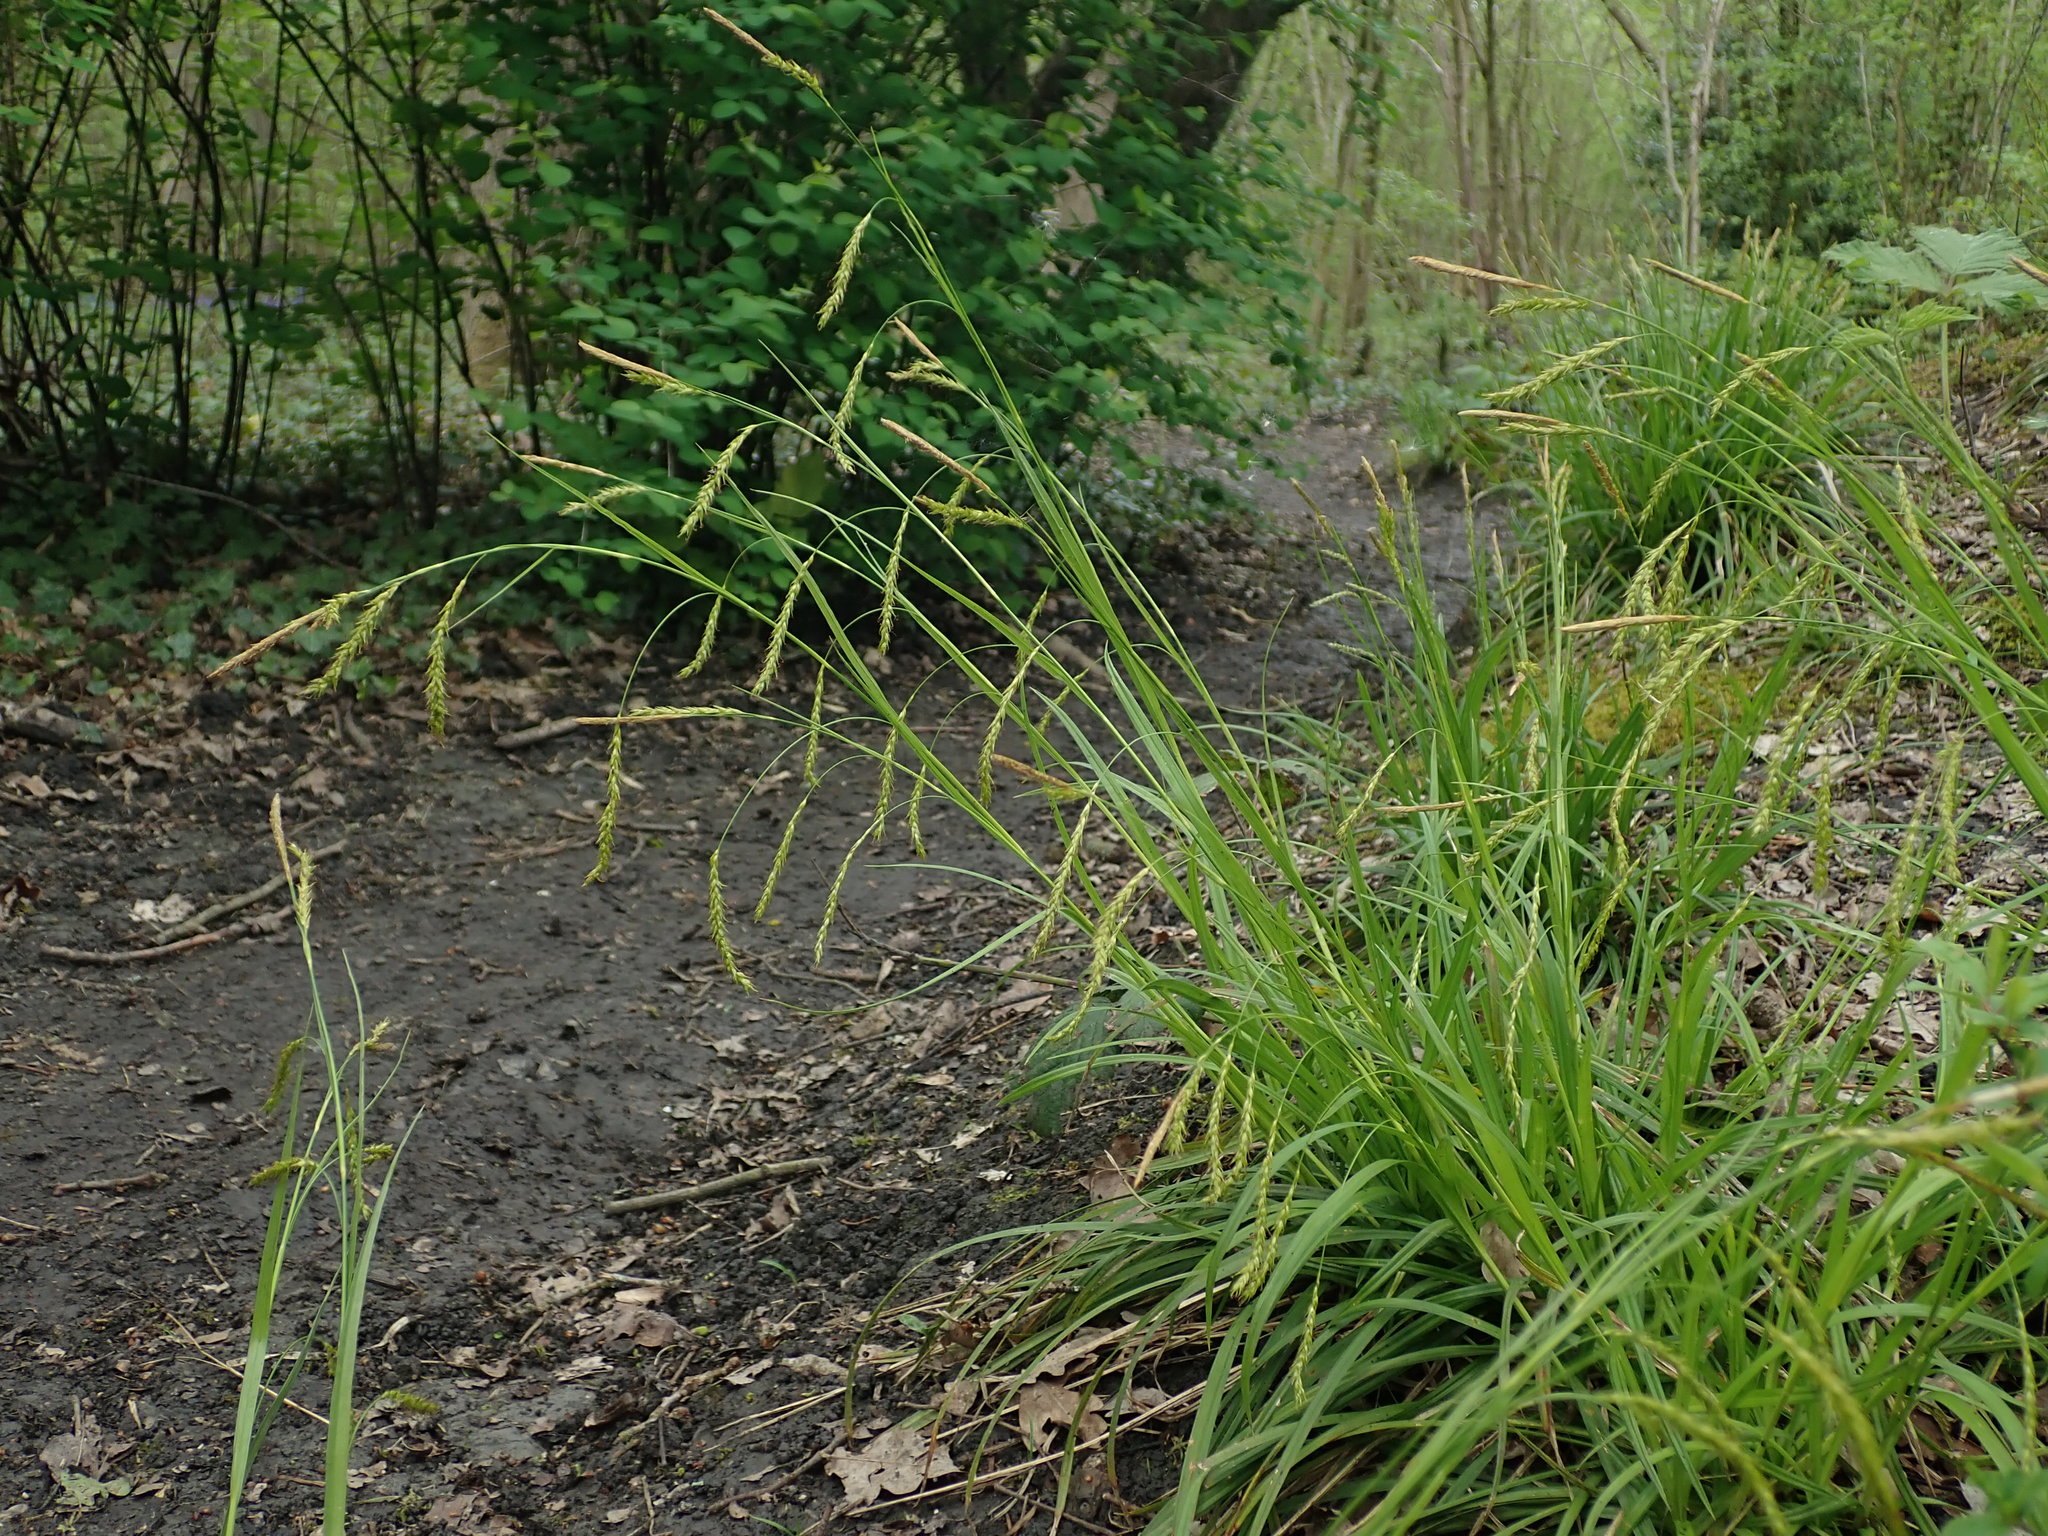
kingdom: Plantae
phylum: Tracheophyta
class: Liliopsida
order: Poales
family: Cyperaceae
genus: Carex
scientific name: Carex sylvatica
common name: Wood-sedge
